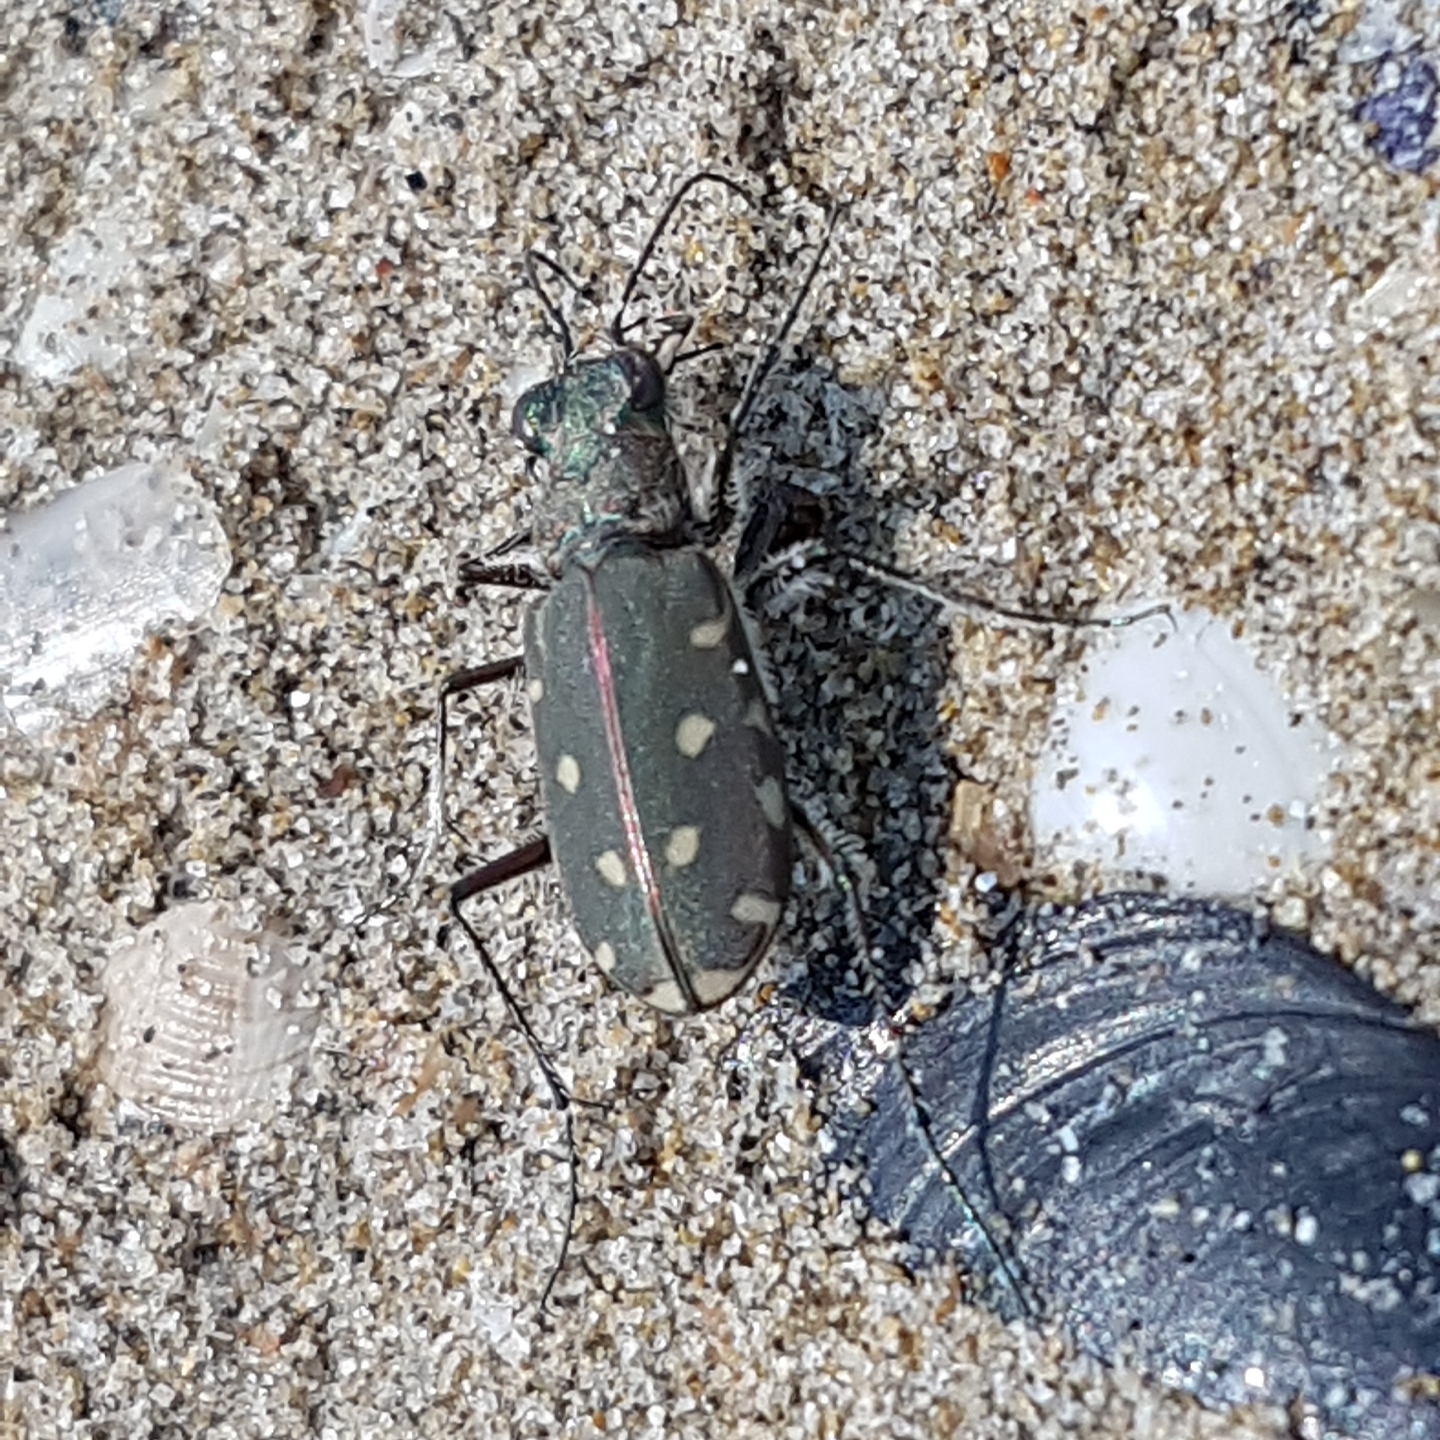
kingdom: Animalia
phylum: Arthropoda
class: Insecta
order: Coleoptera
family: Carabidae
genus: Cicindela
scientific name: Cicindela littoralis
